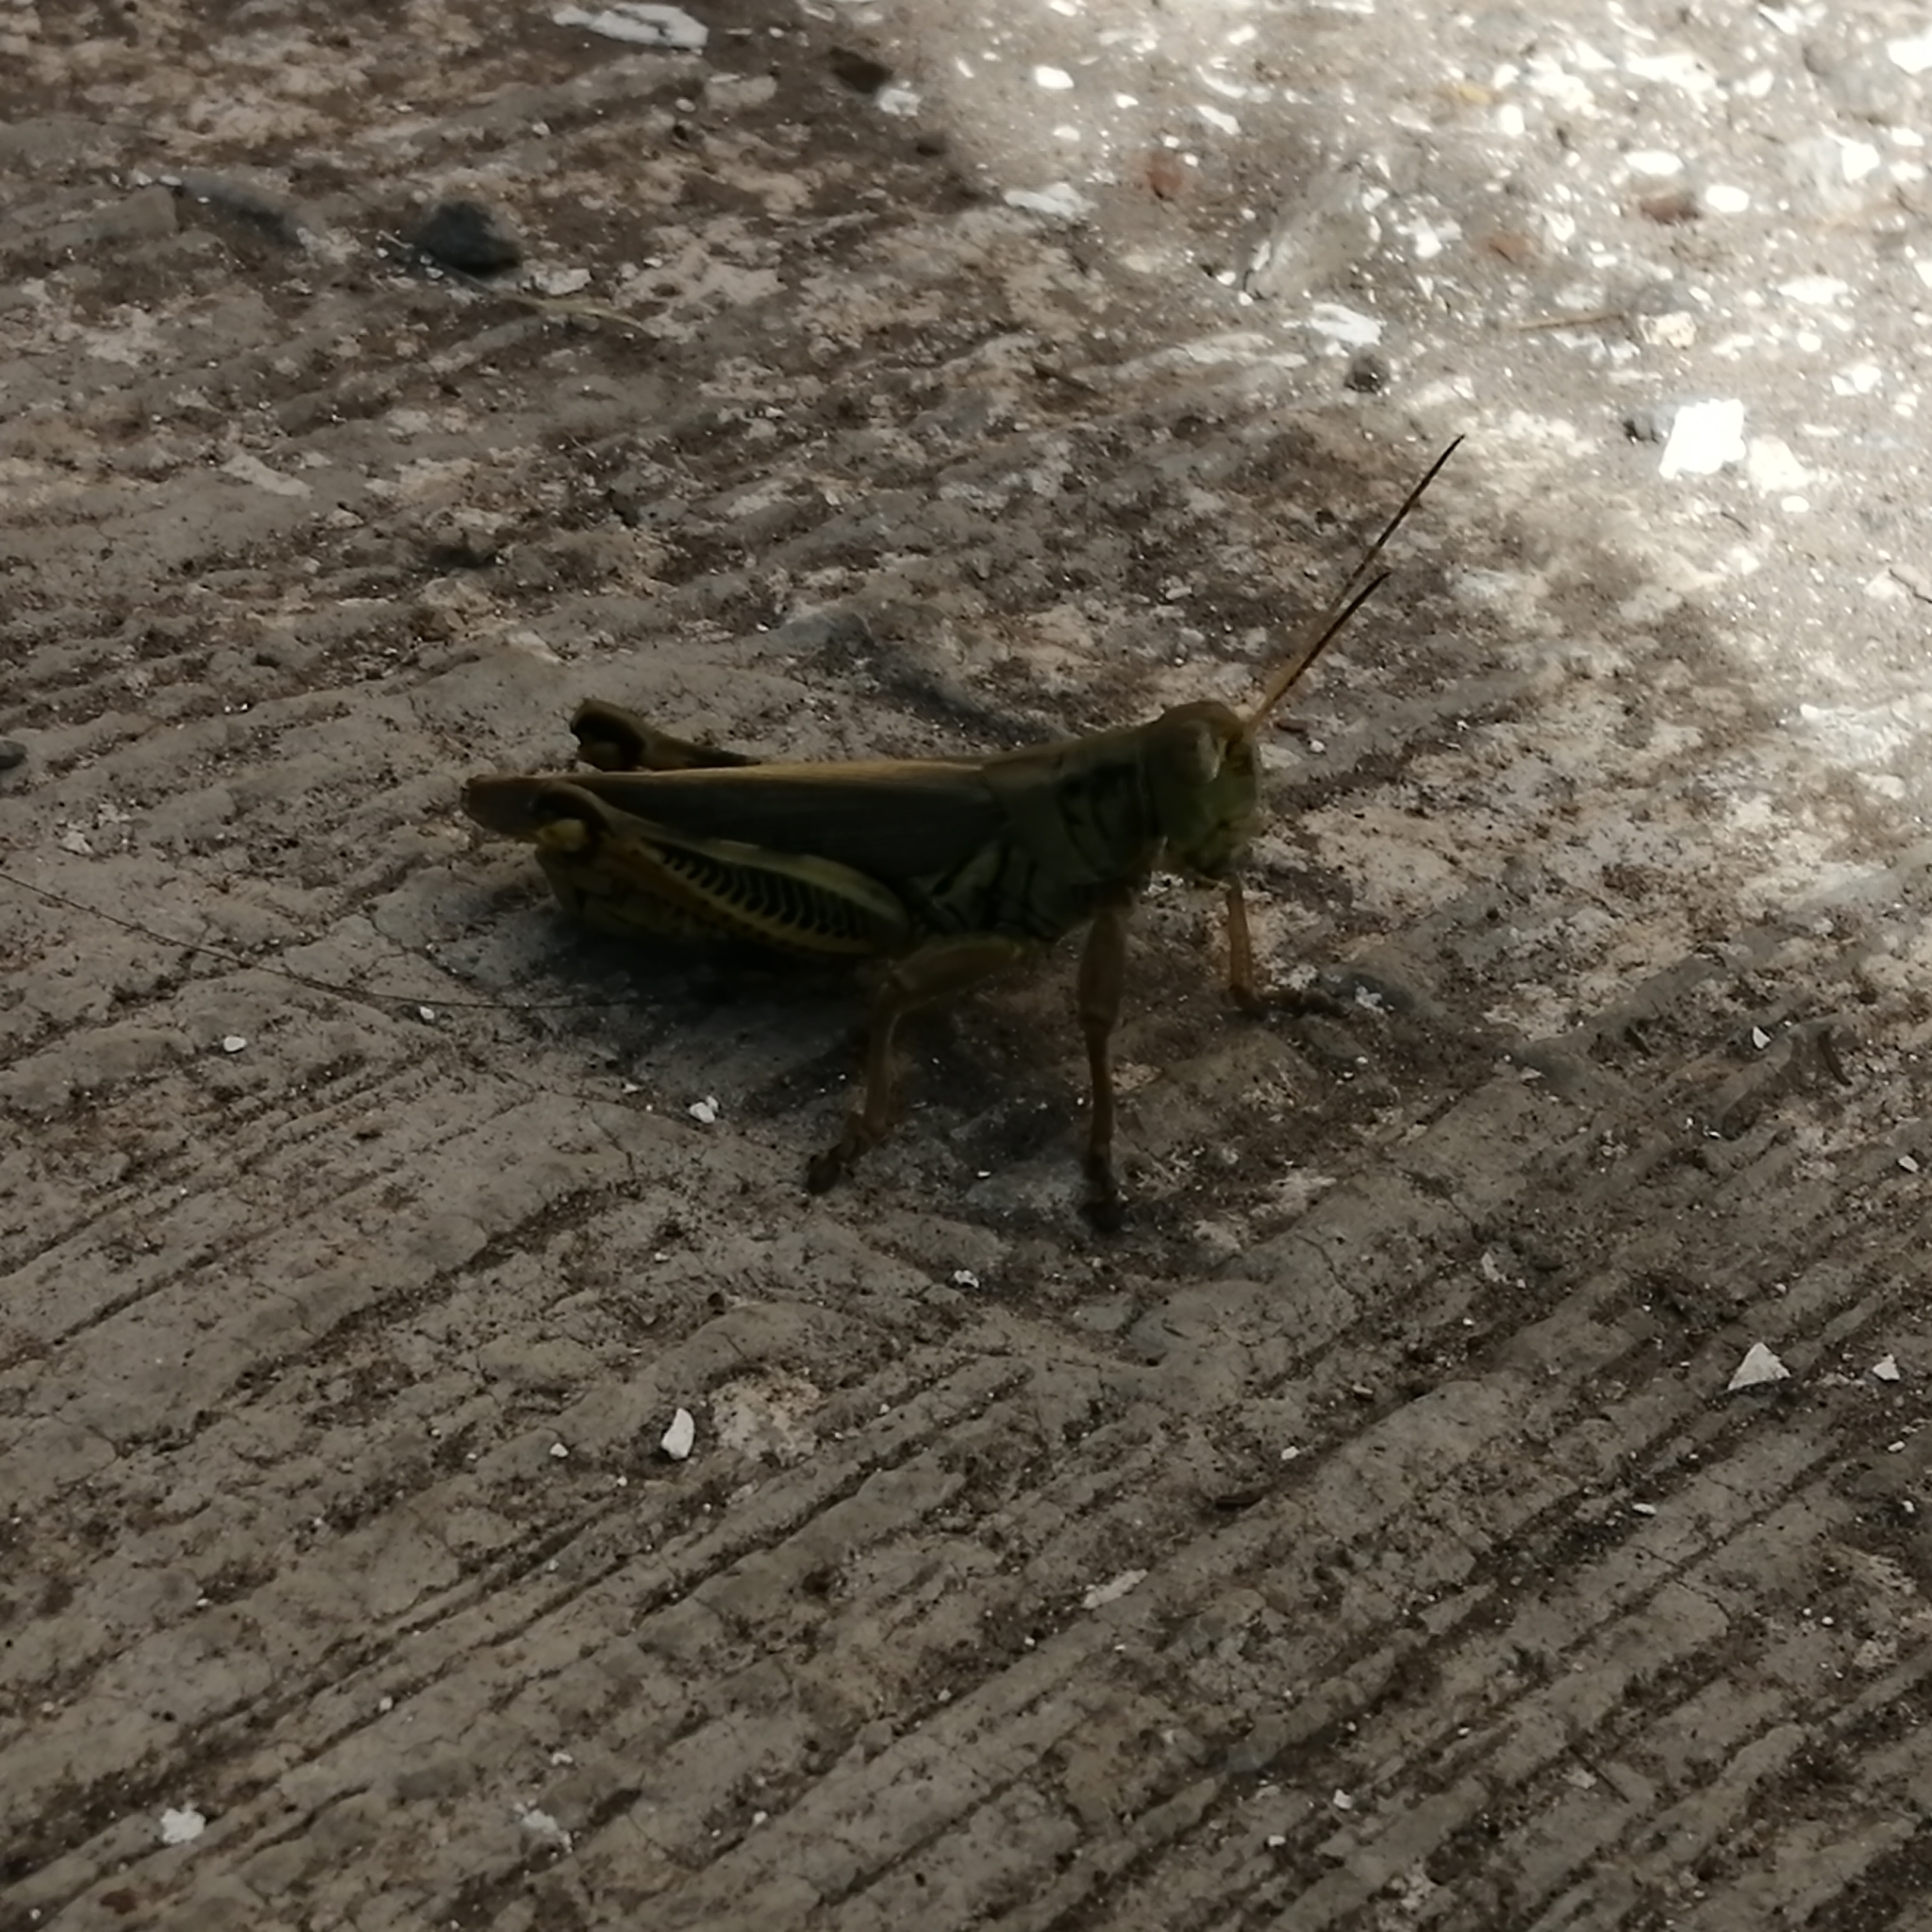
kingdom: Animalia
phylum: Arthropoda
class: Insecta
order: Orthoptera
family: Acrididae
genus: Melanoplus
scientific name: Melanoplus differentialis
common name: Differential grasshopper
